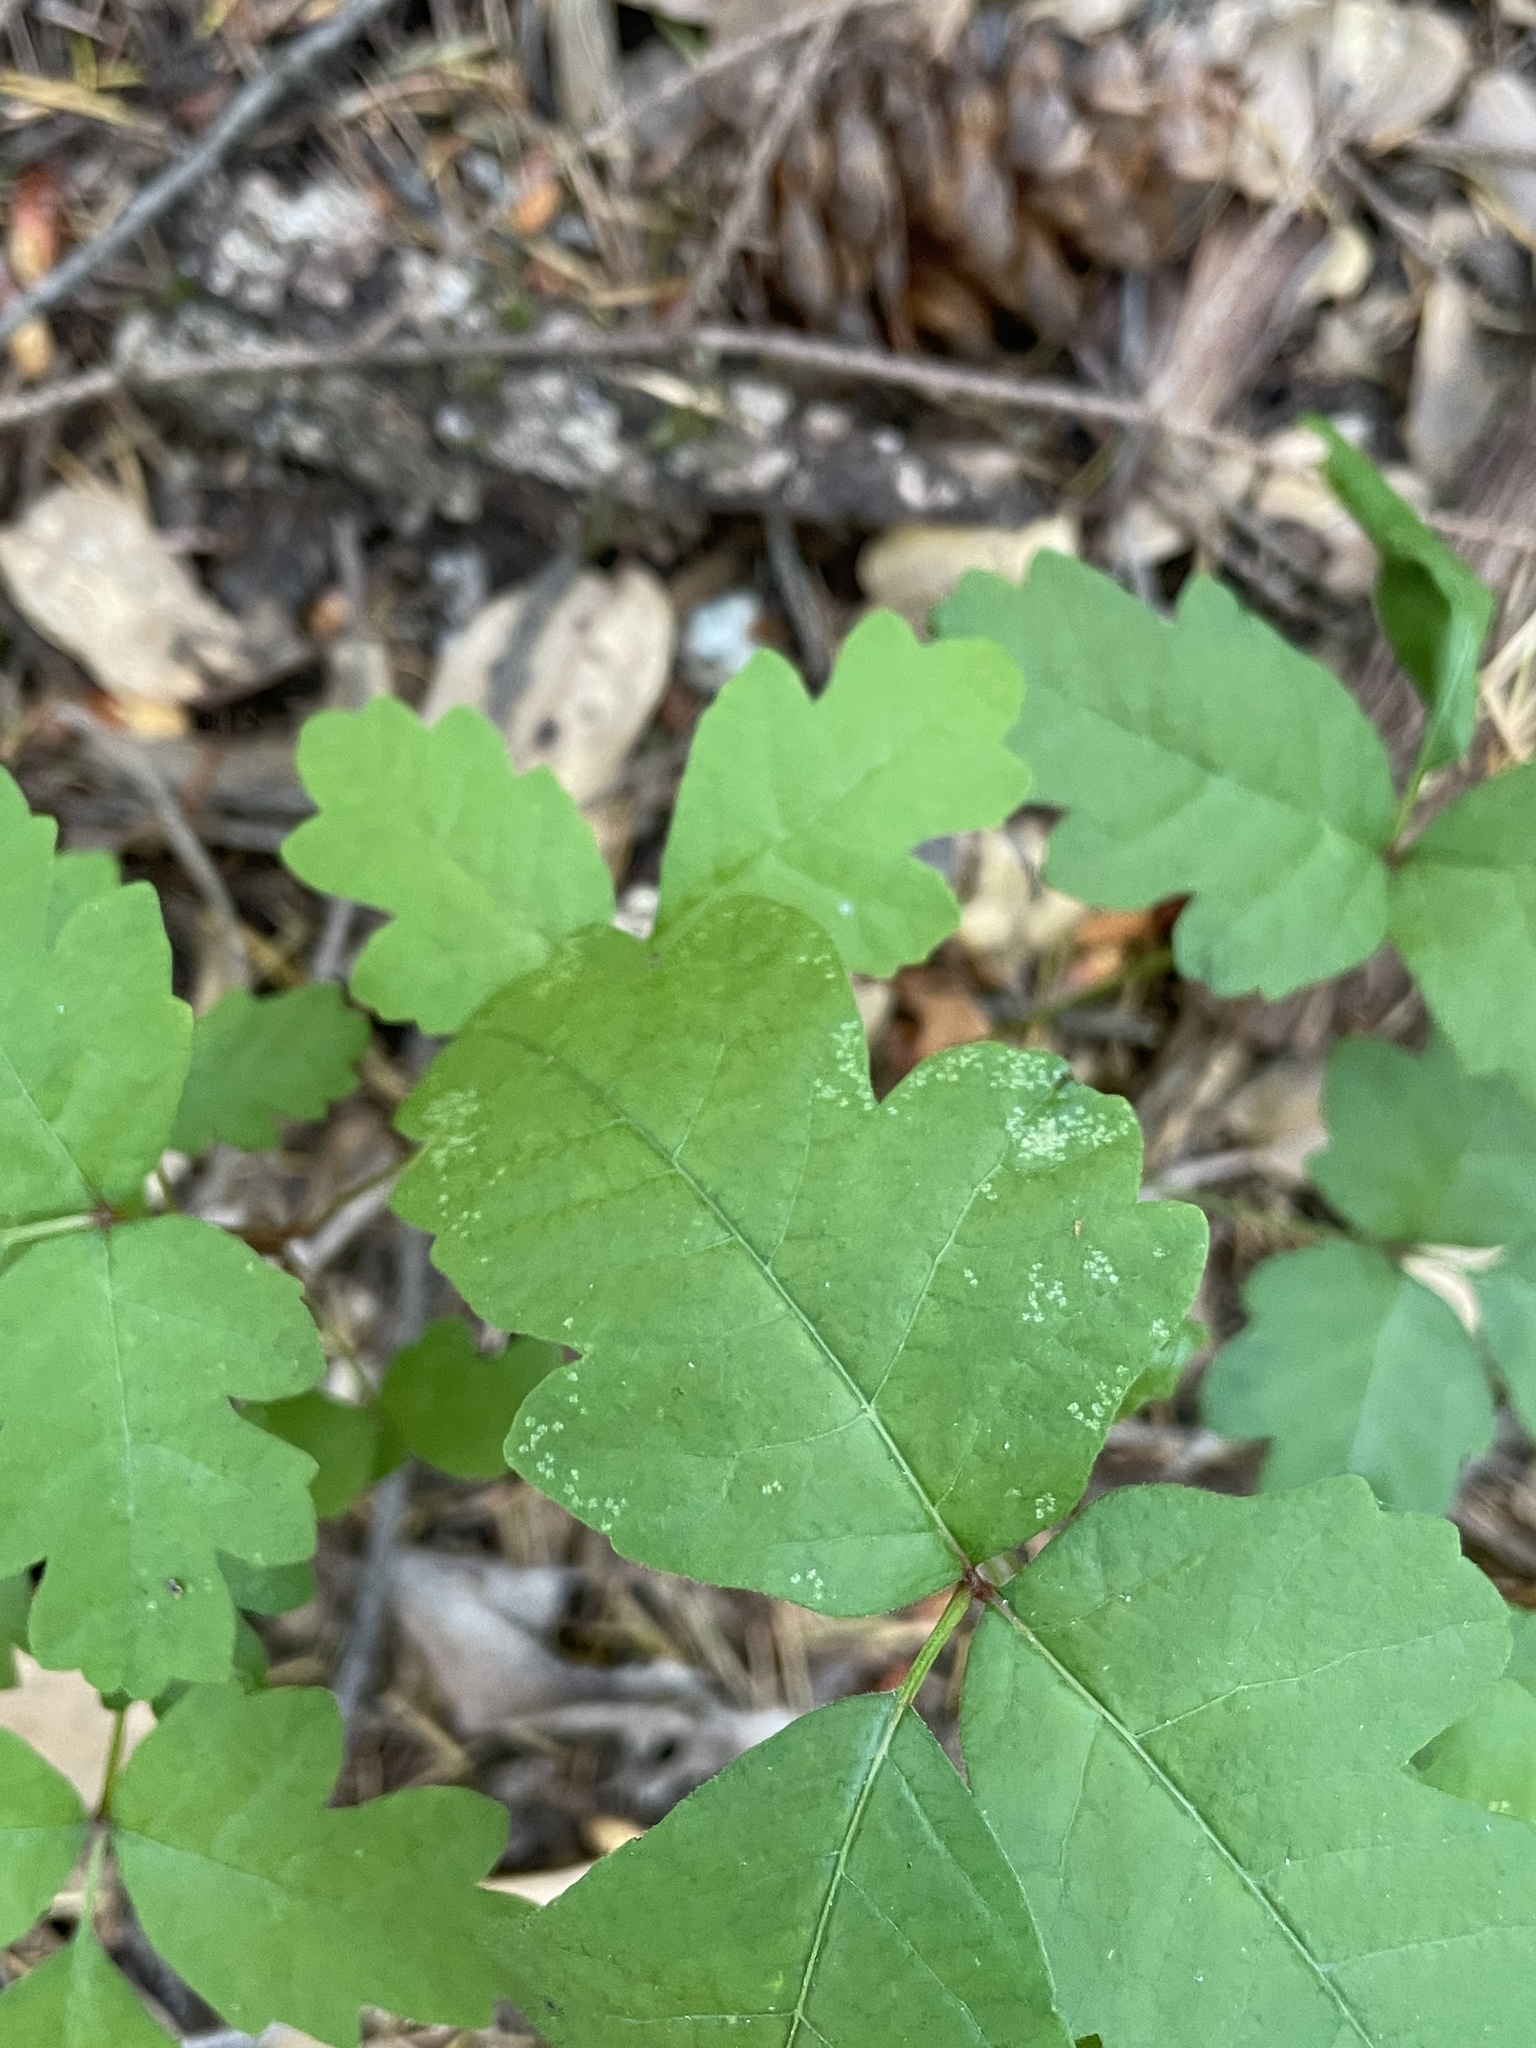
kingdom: Plantae
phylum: Tracheophyta
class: Magnoliopsida
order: Sapindales
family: Anacardiaceae
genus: Toxicodendron
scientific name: Toxicodendron diversilobum
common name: Pacific poison-oak
